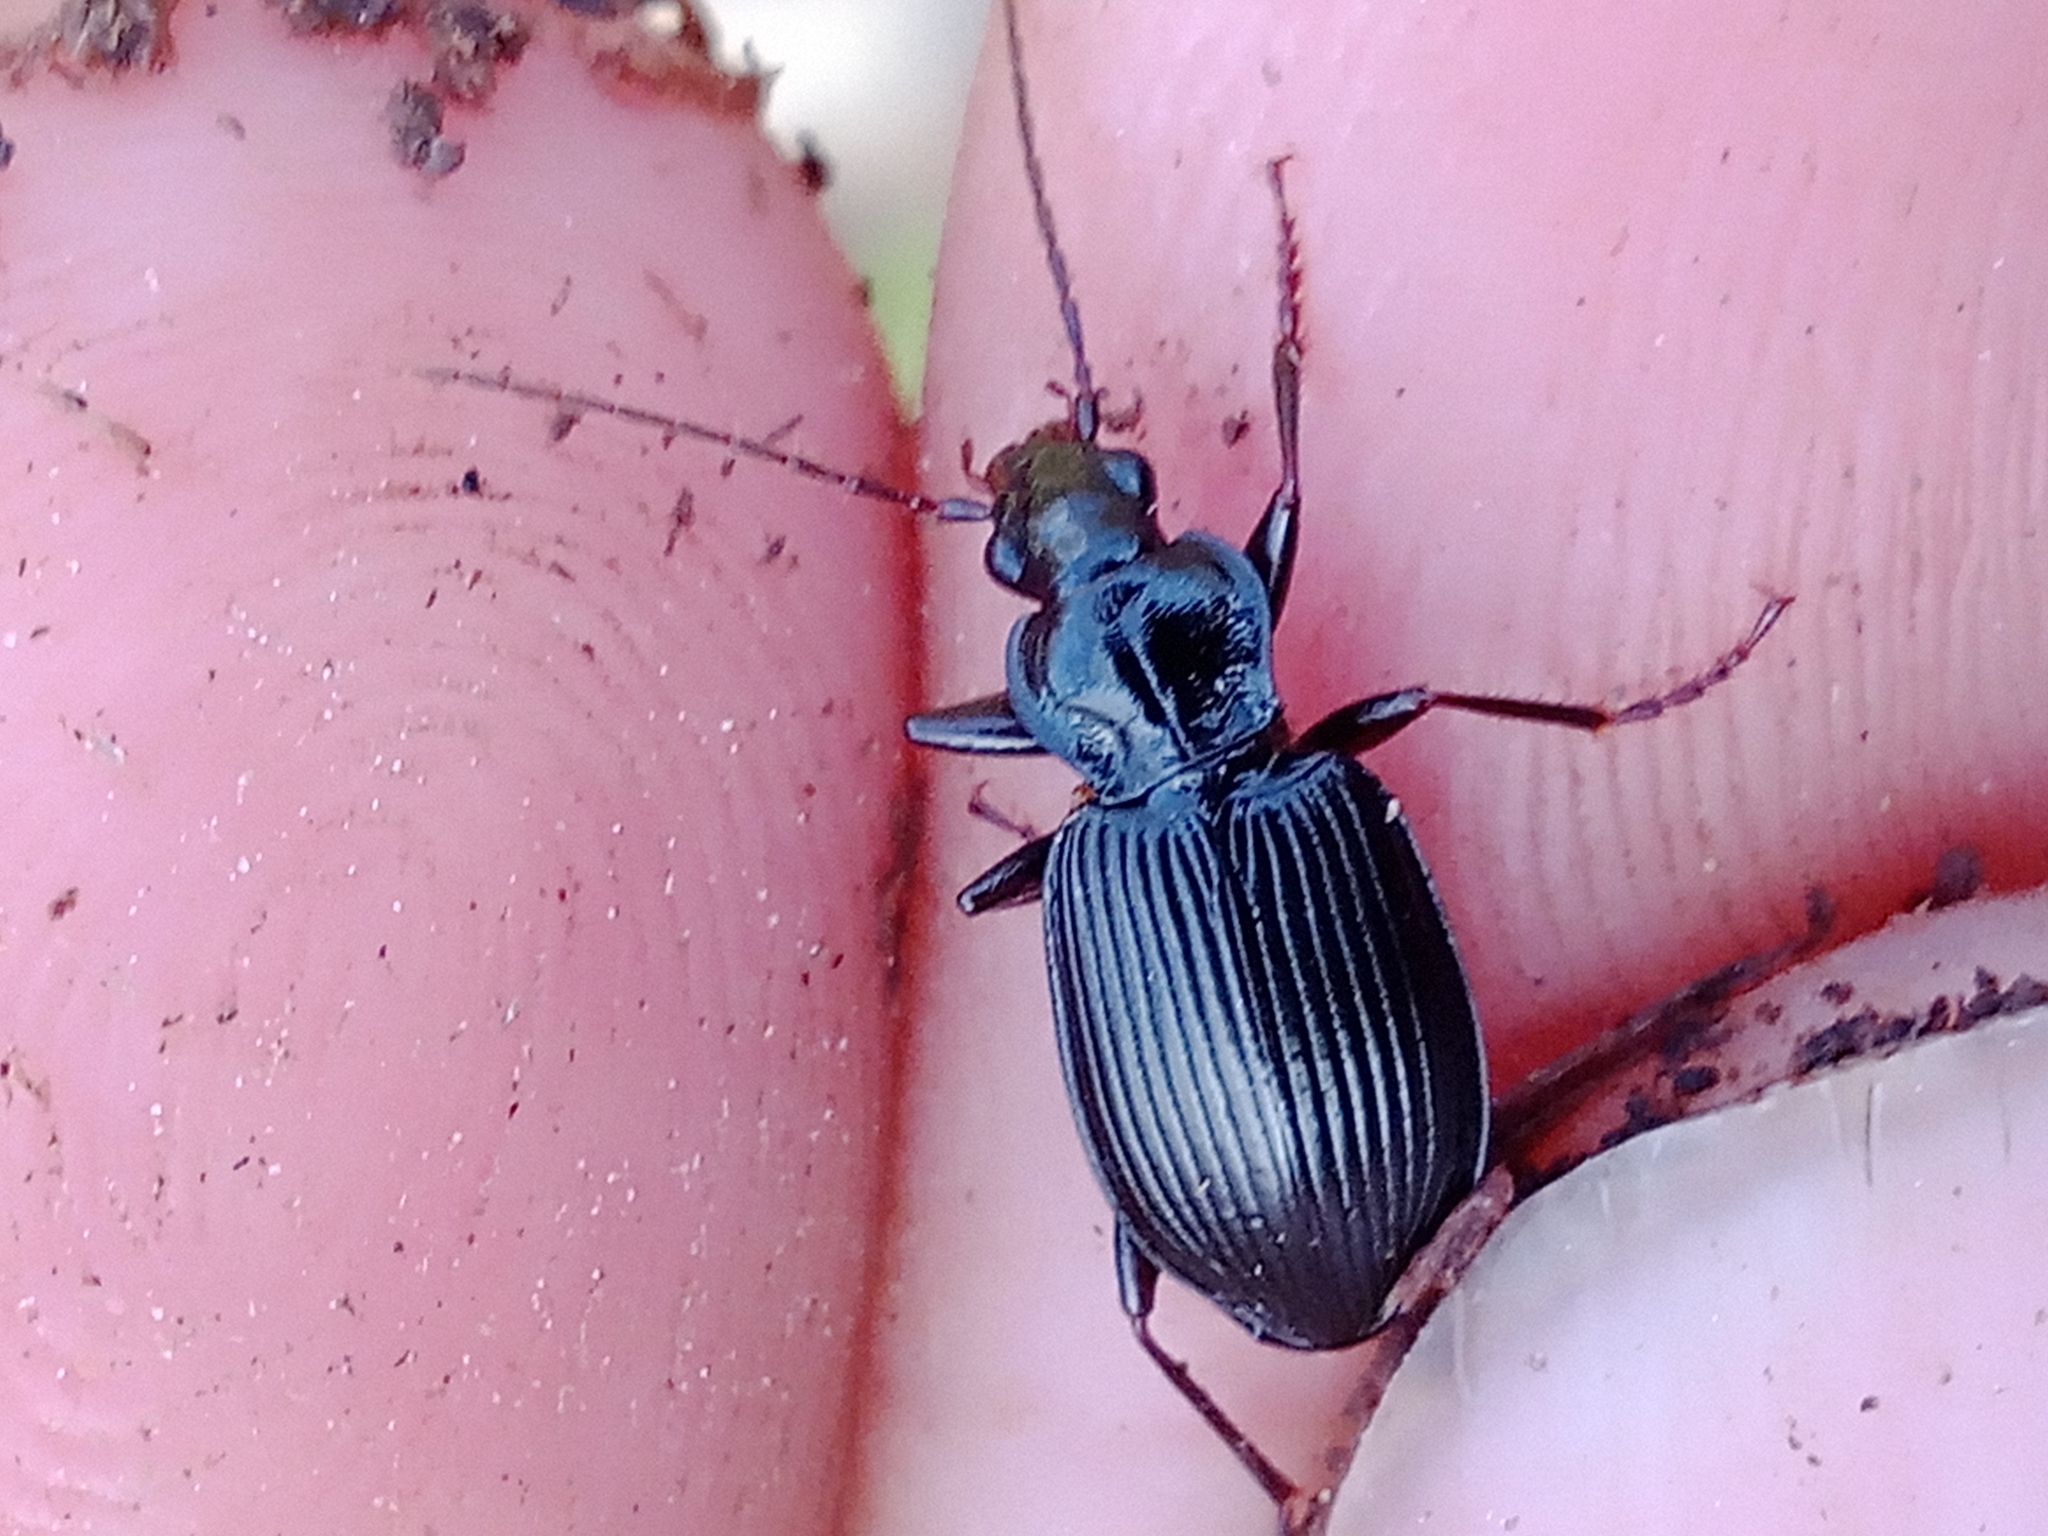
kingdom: Animalia
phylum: Arthropoda
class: Insecta
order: Coleoptera
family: Carabidae
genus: Platynus
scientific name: Platynus assimilis
